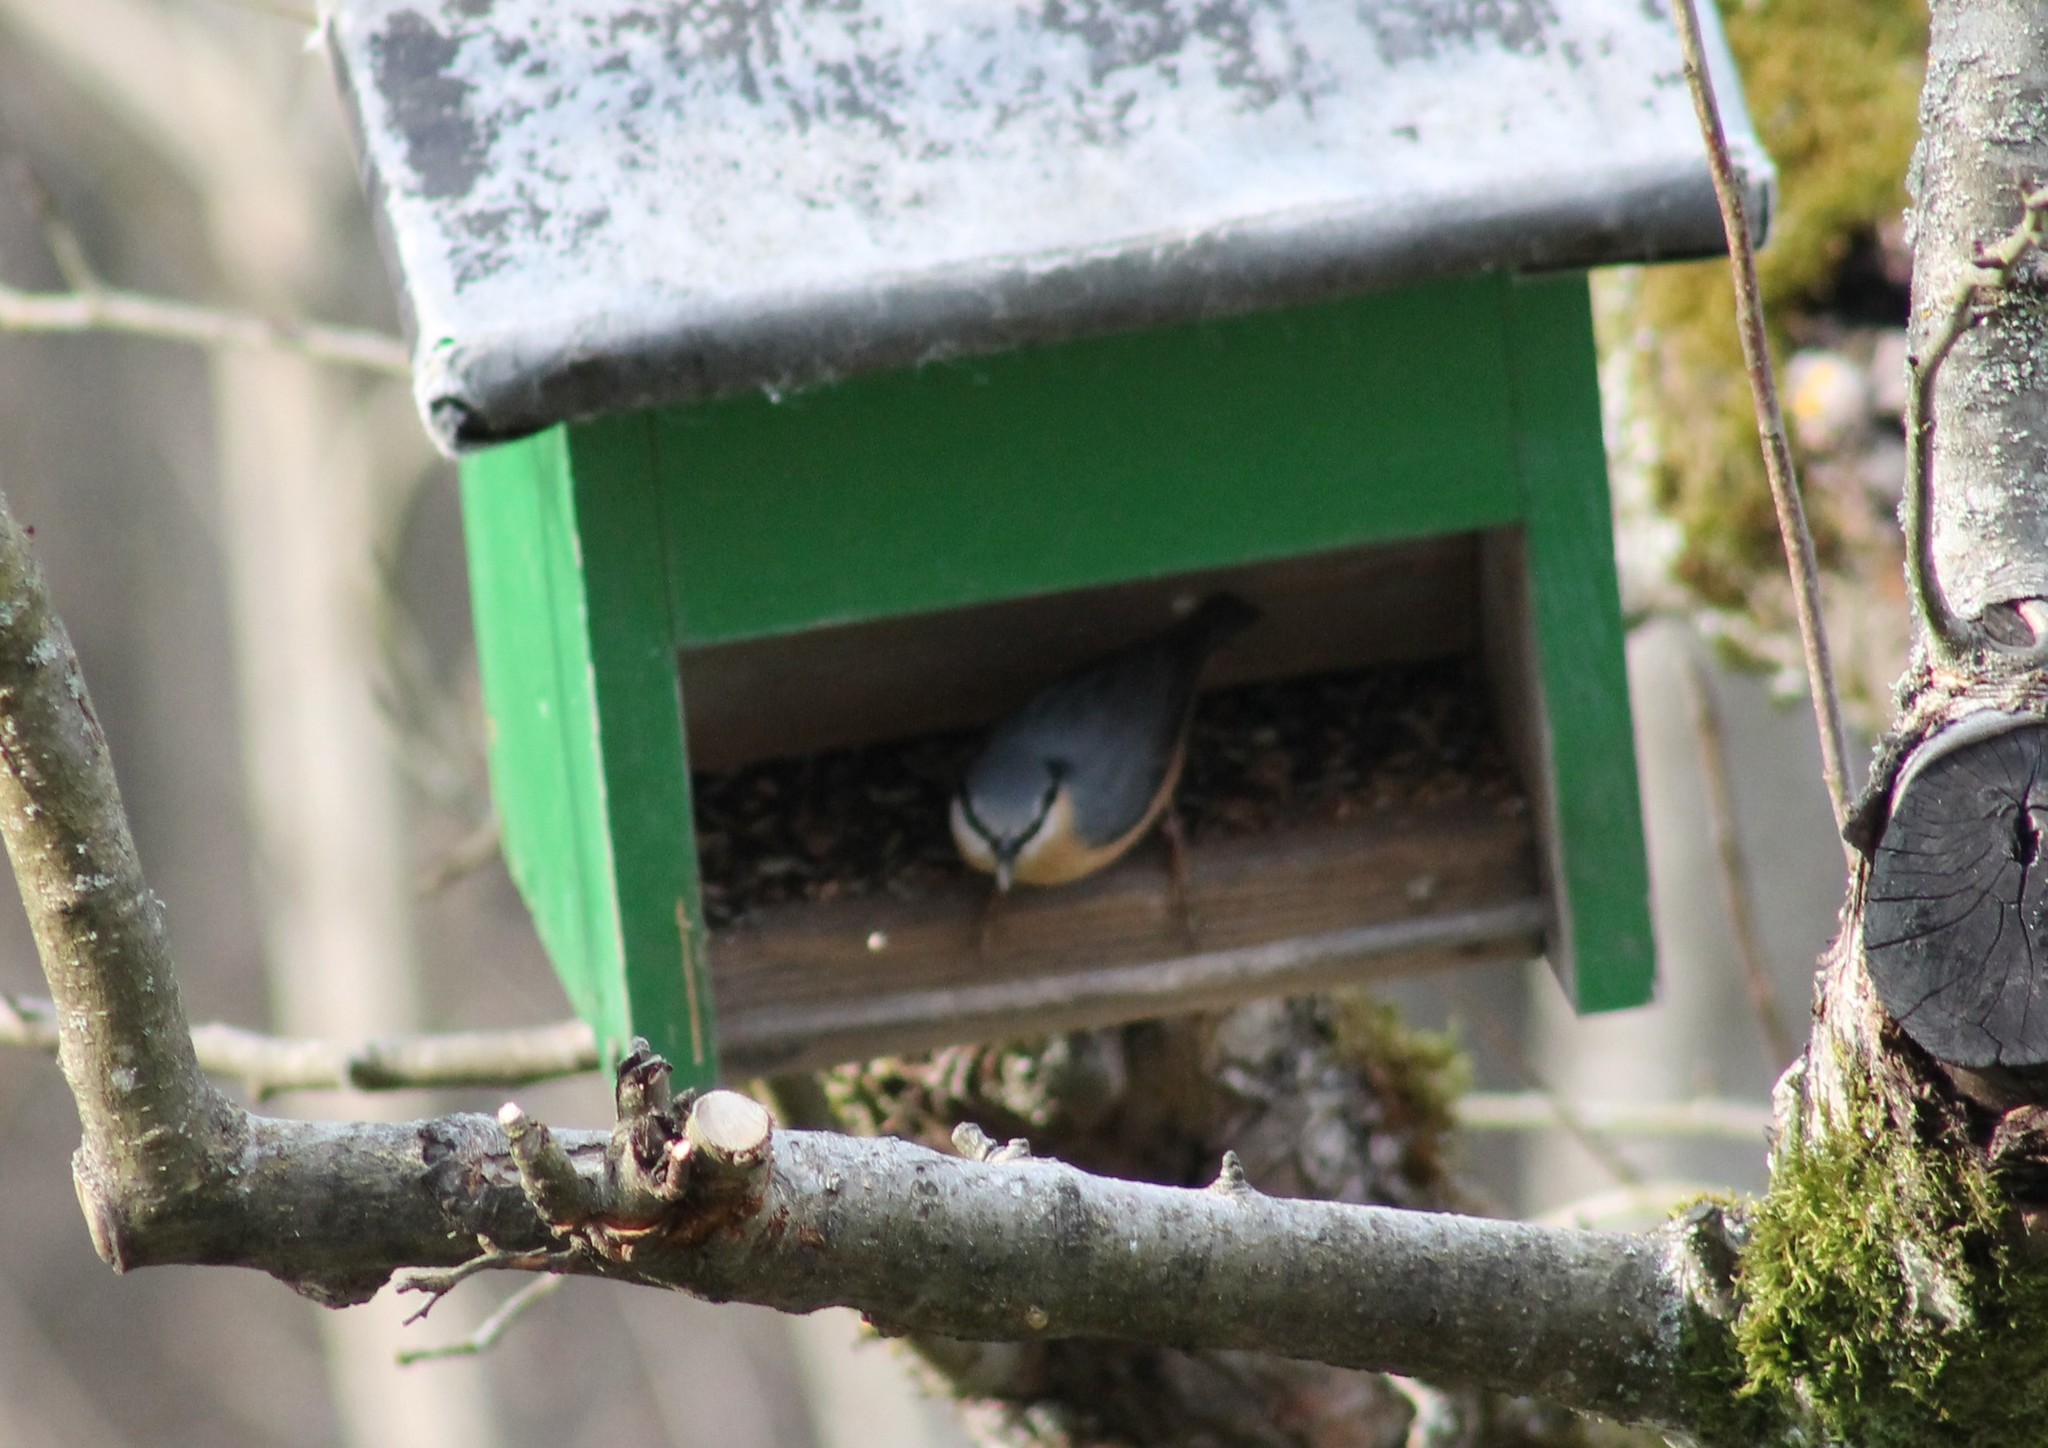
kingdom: Animalia
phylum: Chordata
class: Aves
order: Passeriformes
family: Sittidae
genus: Sitta
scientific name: Sitta europaea
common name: Eurasian nuthatch
